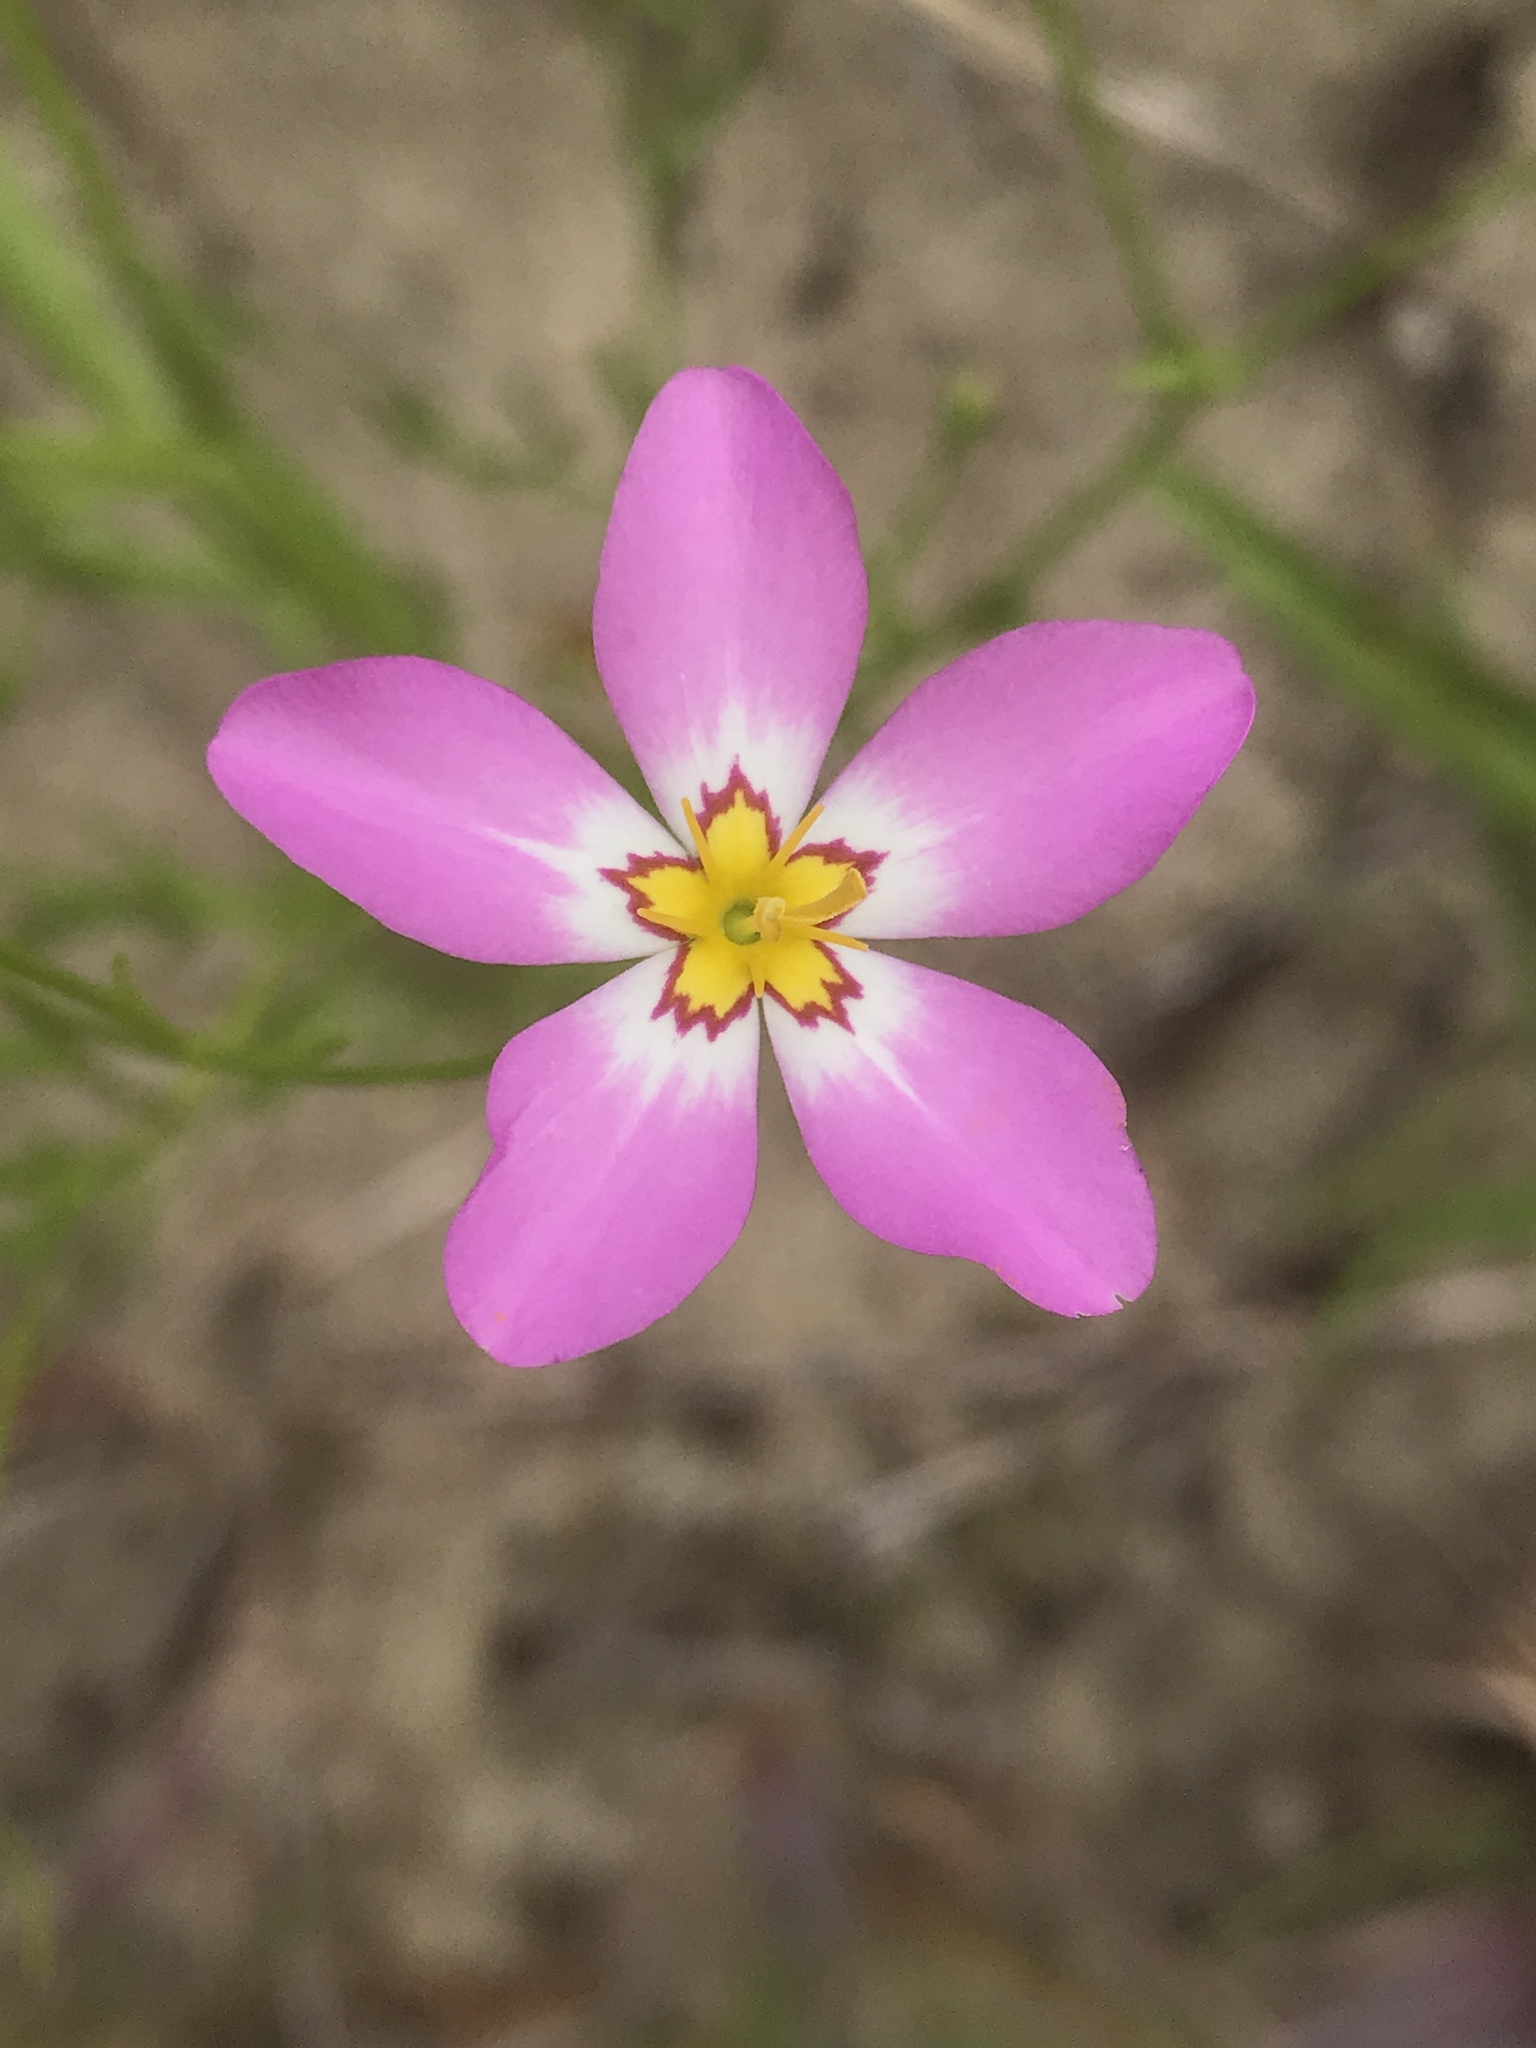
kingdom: Plantae
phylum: Tracheophyta
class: Magnoliopsida
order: Gentianales
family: Gentianaceae
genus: Sabatia
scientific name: Sabatia stellaris
